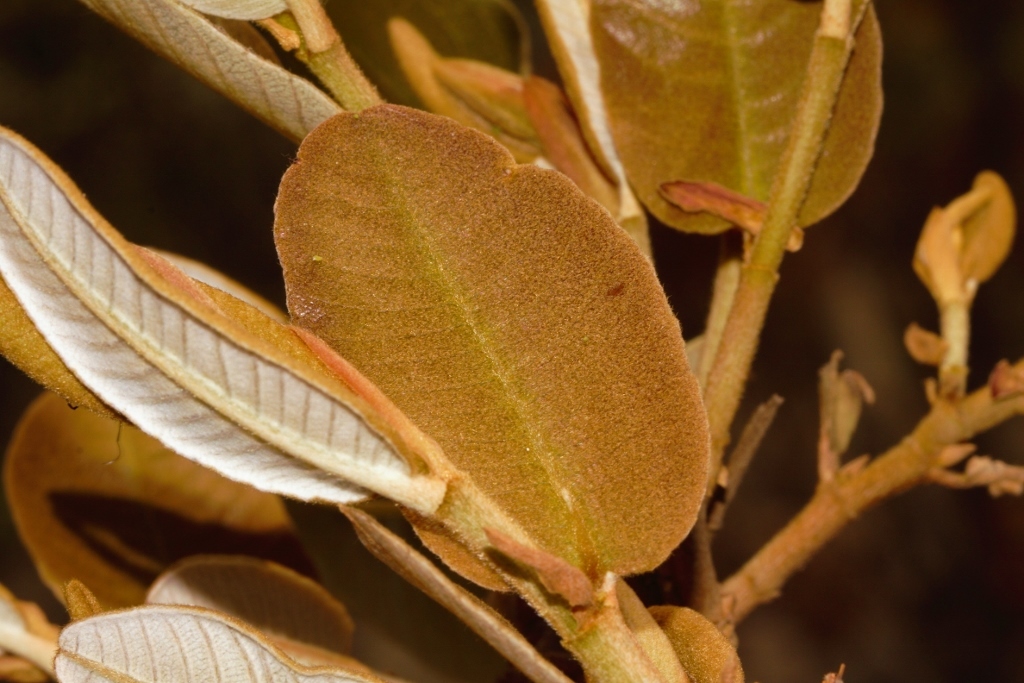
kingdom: Animalia
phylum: Arthropoda
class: Insecta
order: Diptera
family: Cecidomyiidae
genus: Lopesia
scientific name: Lopesia parimarii
